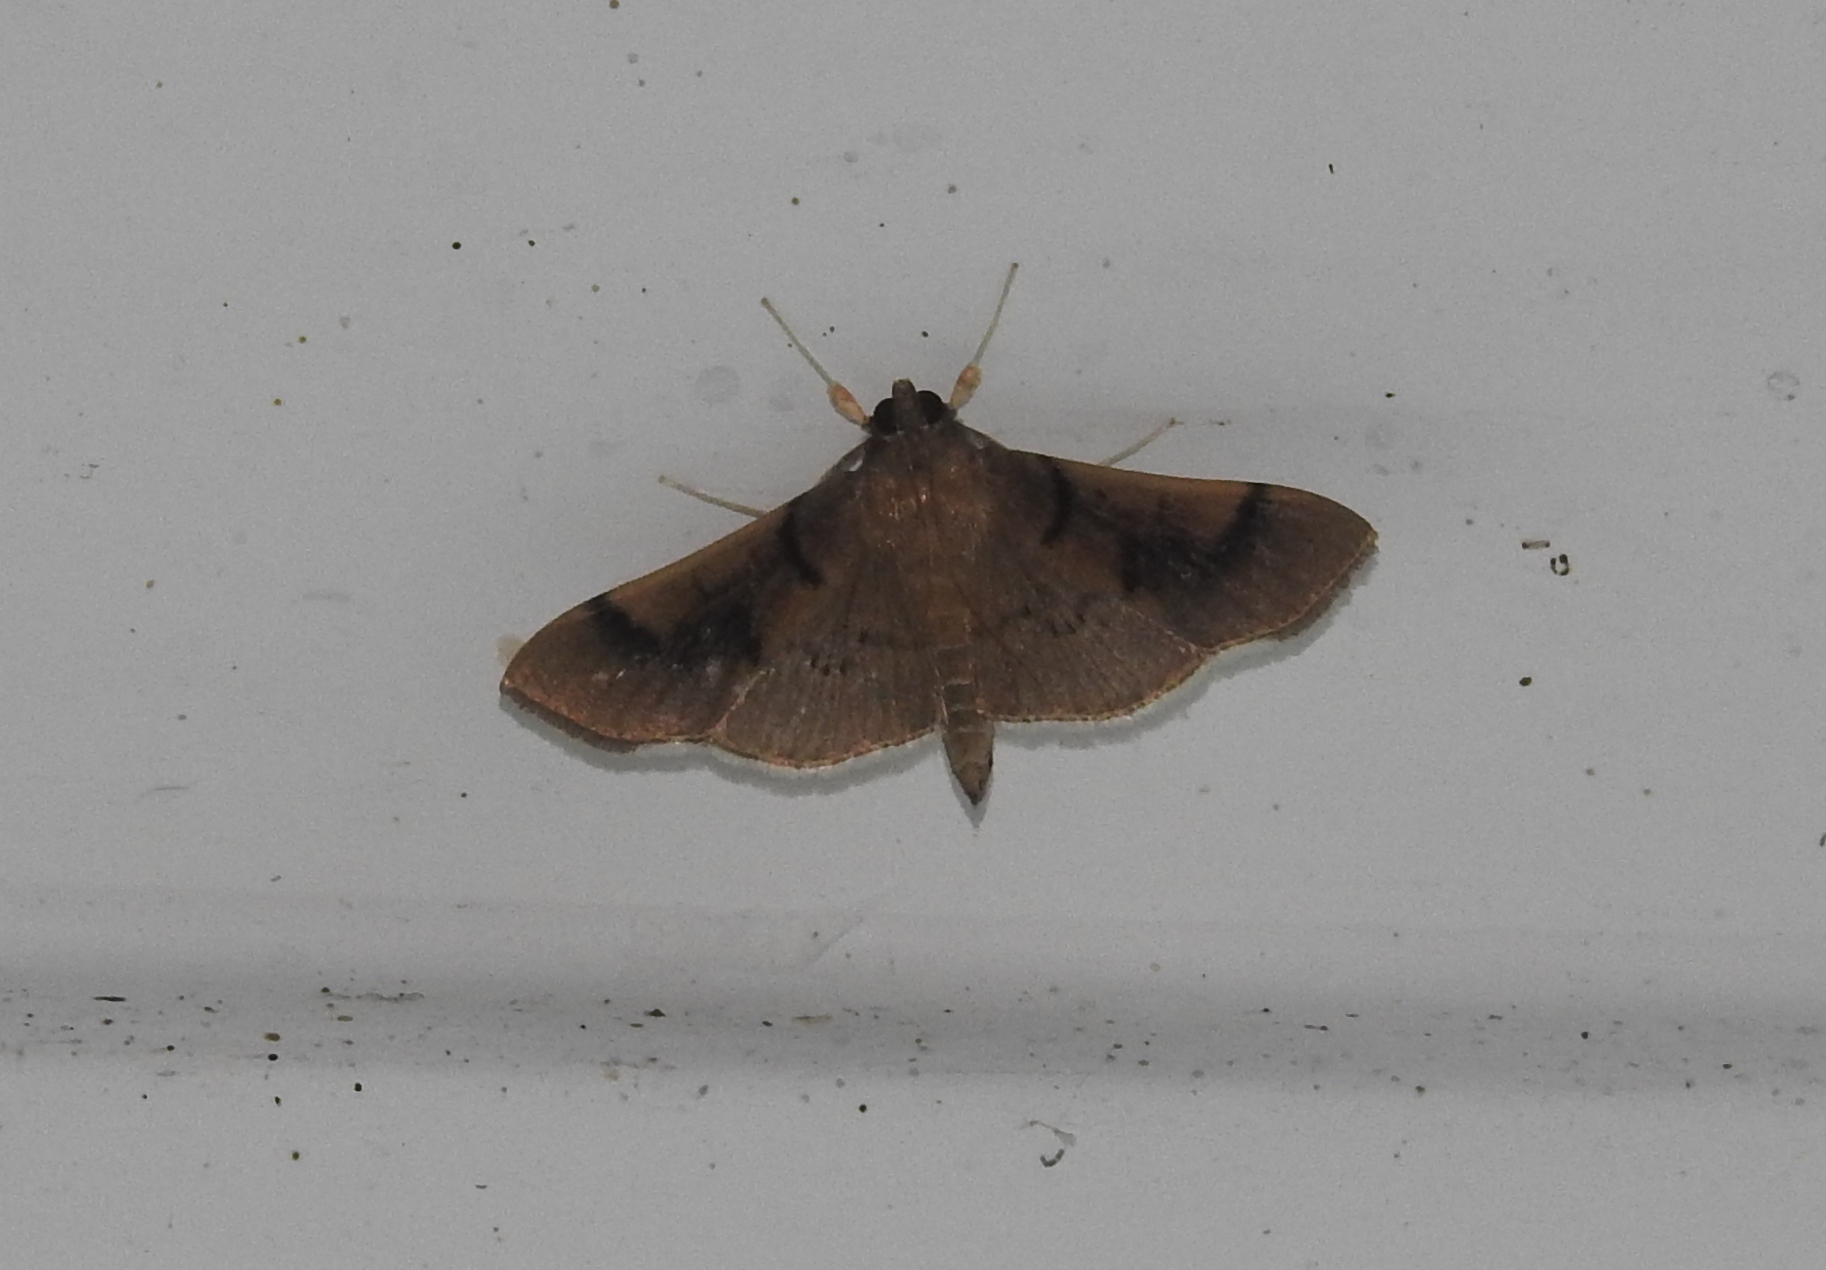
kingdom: Animalia
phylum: Arthropoda
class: Insecta
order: Lepidoptera
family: Crambidae
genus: Omiodes
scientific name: Omiodes
